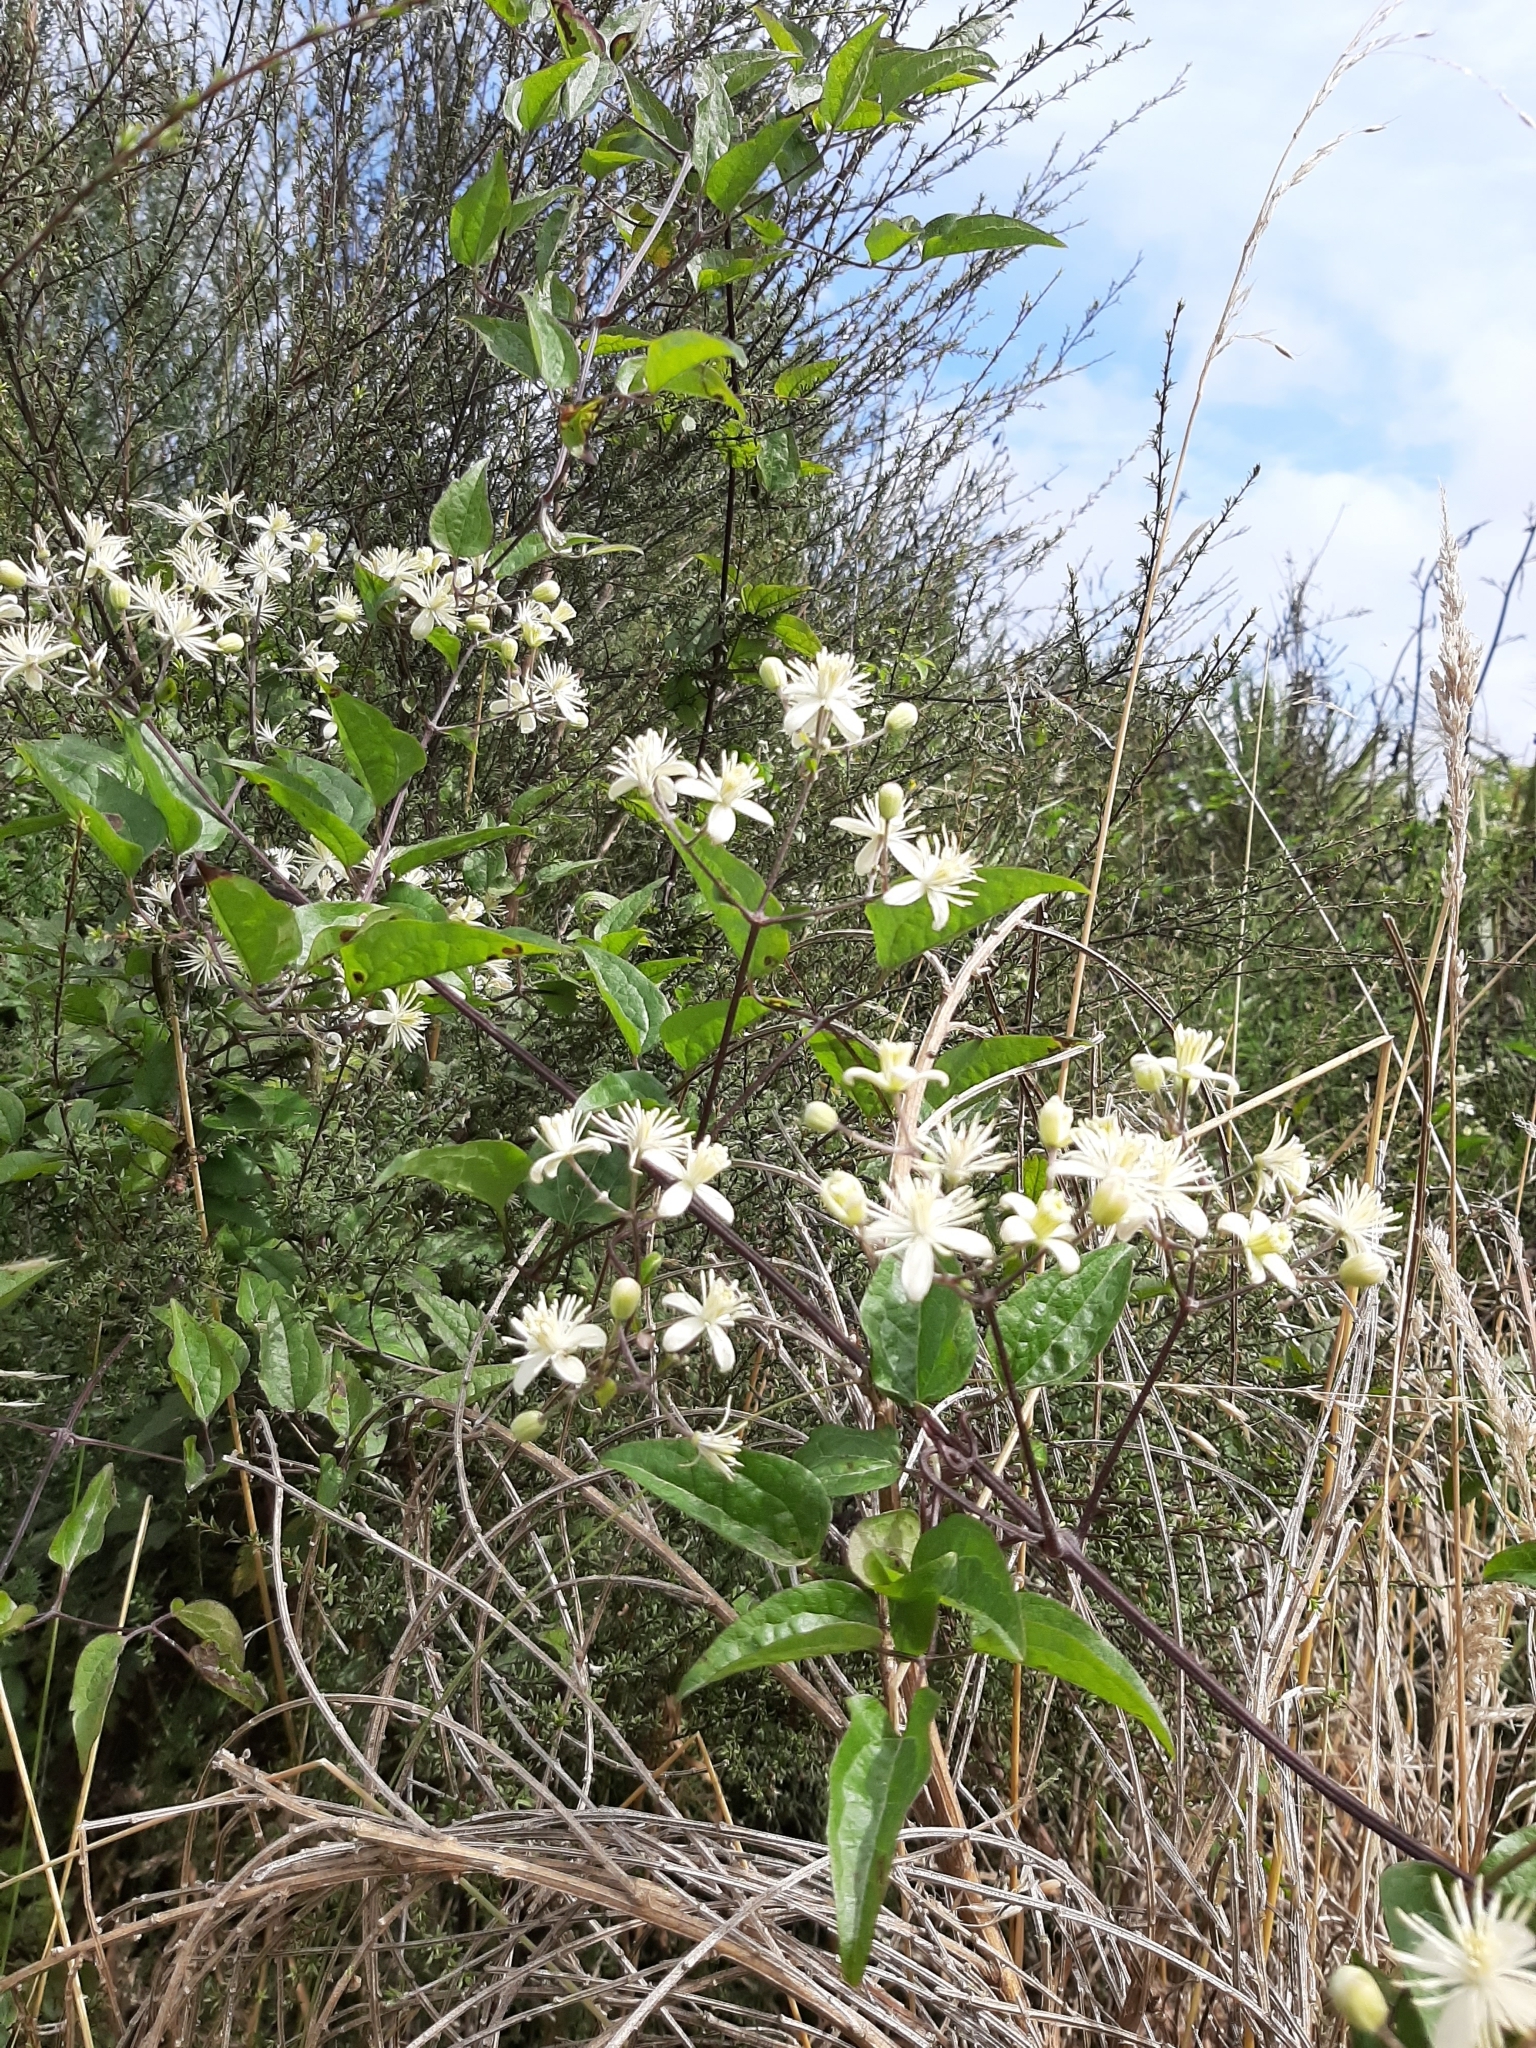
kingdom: Plantae
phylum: Tracheophyta
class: Magnoliopsida
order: Ranunculales
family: Ranunculaceae
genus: Clematis
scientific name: Clematis vitalba
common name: Evergreen clematis
